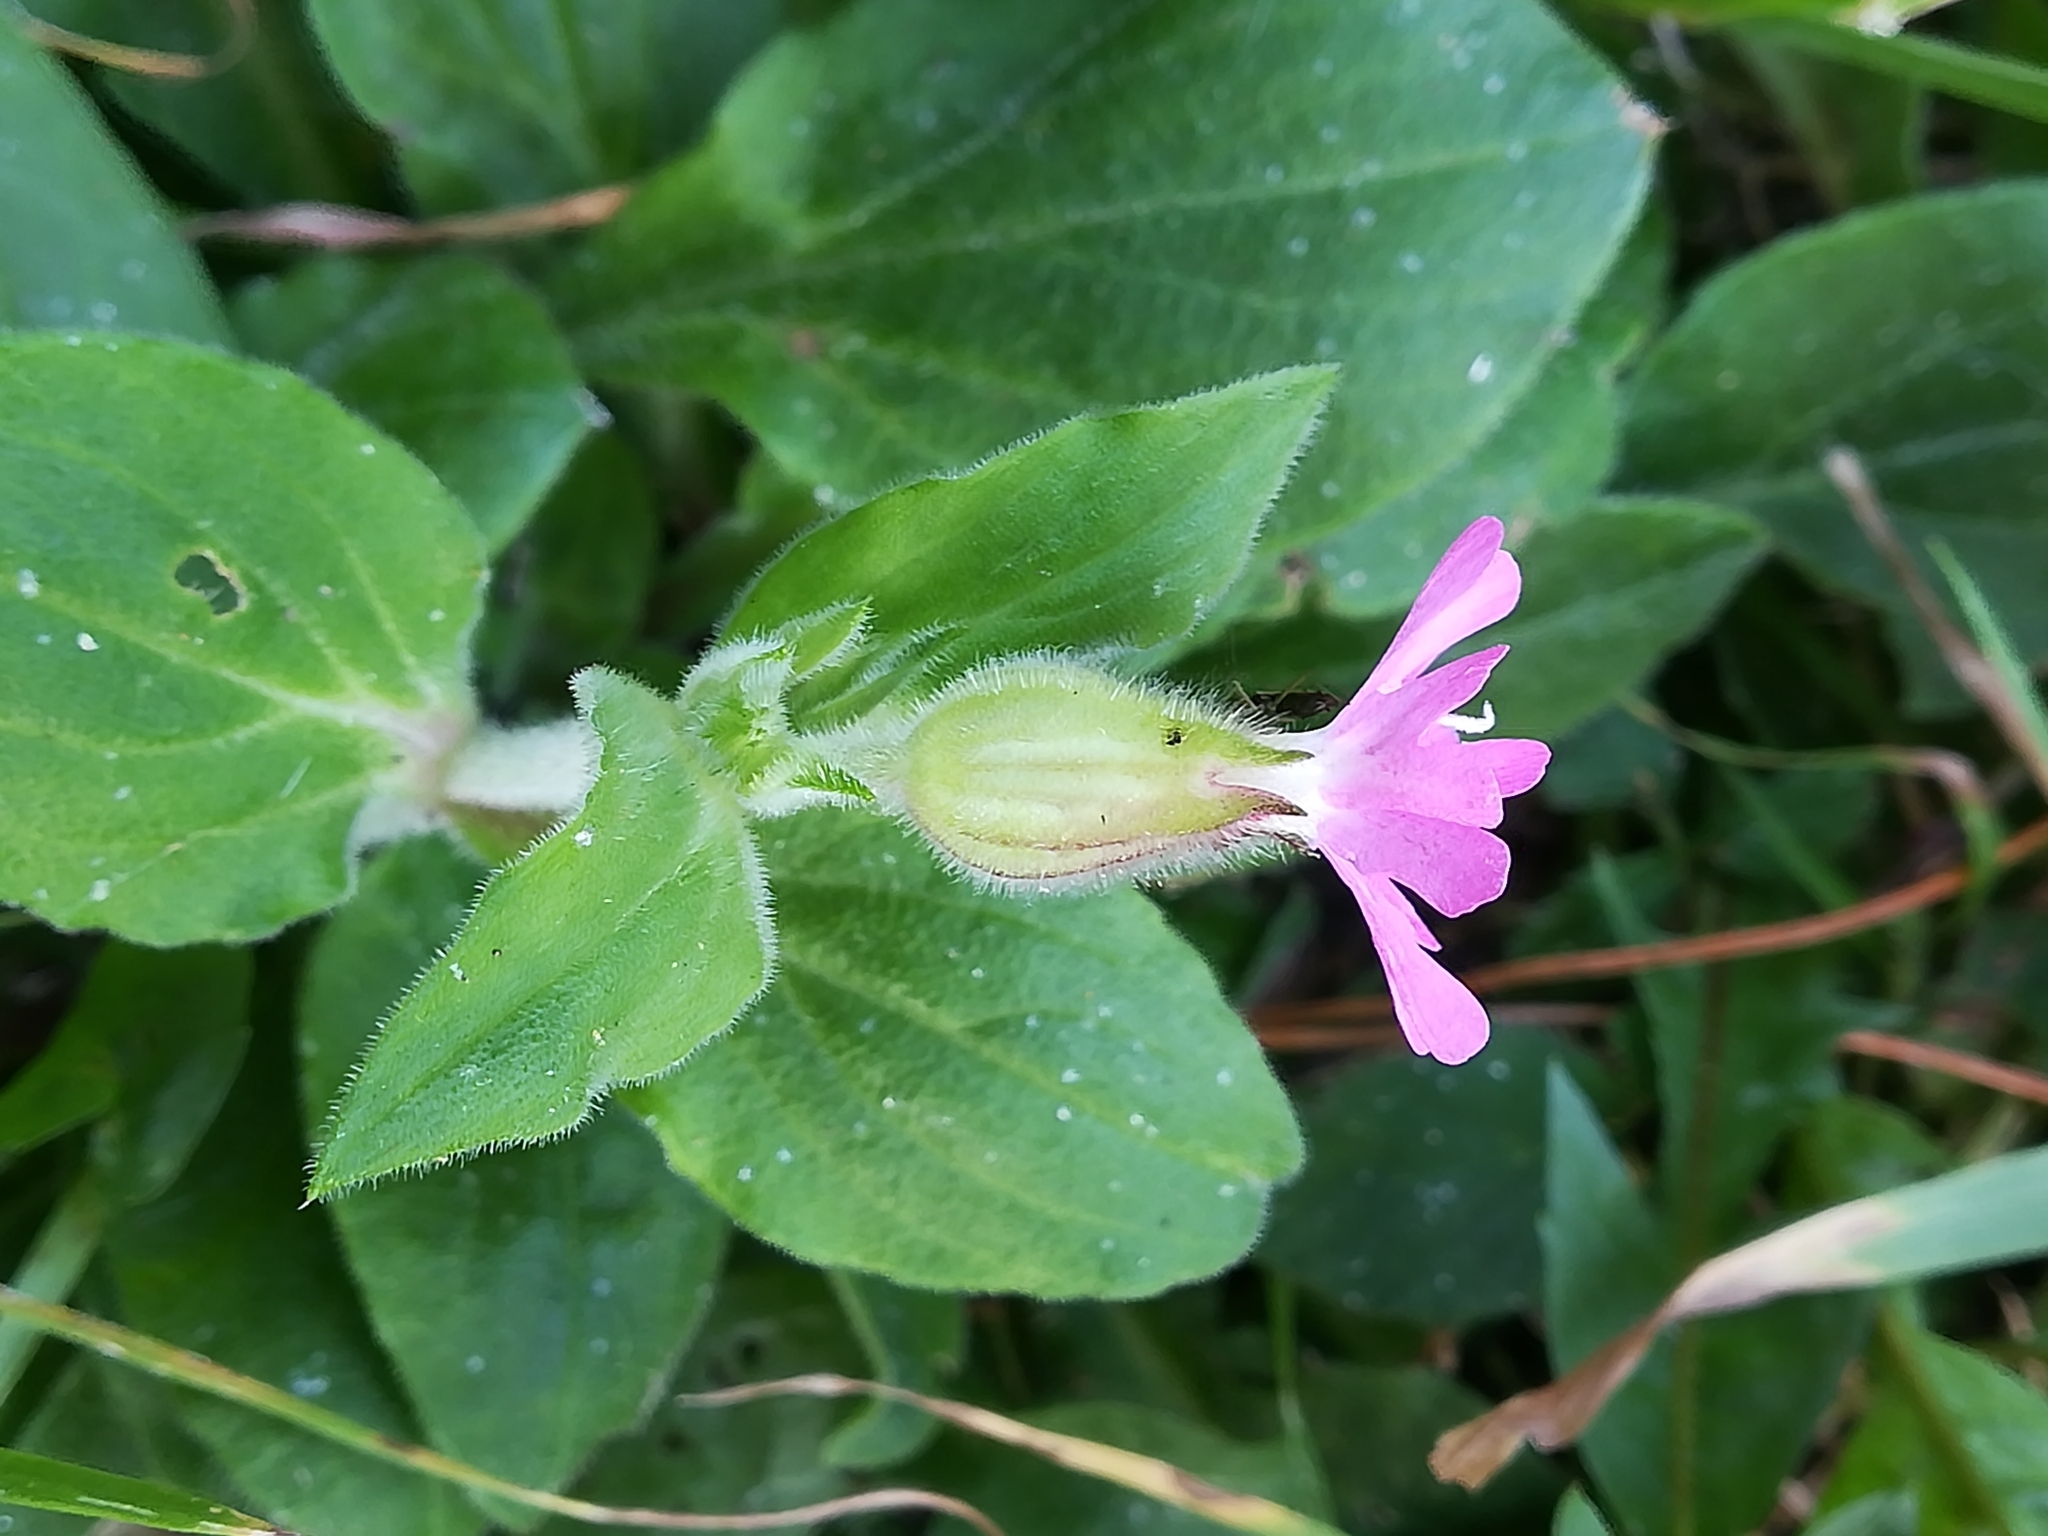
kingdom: Plantae
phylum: Tracheophyta
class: Magnoliopsida
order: Caryophyllales
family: Caryophyllaceae
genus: Silene
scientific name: Silene dioica
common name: Red campion
